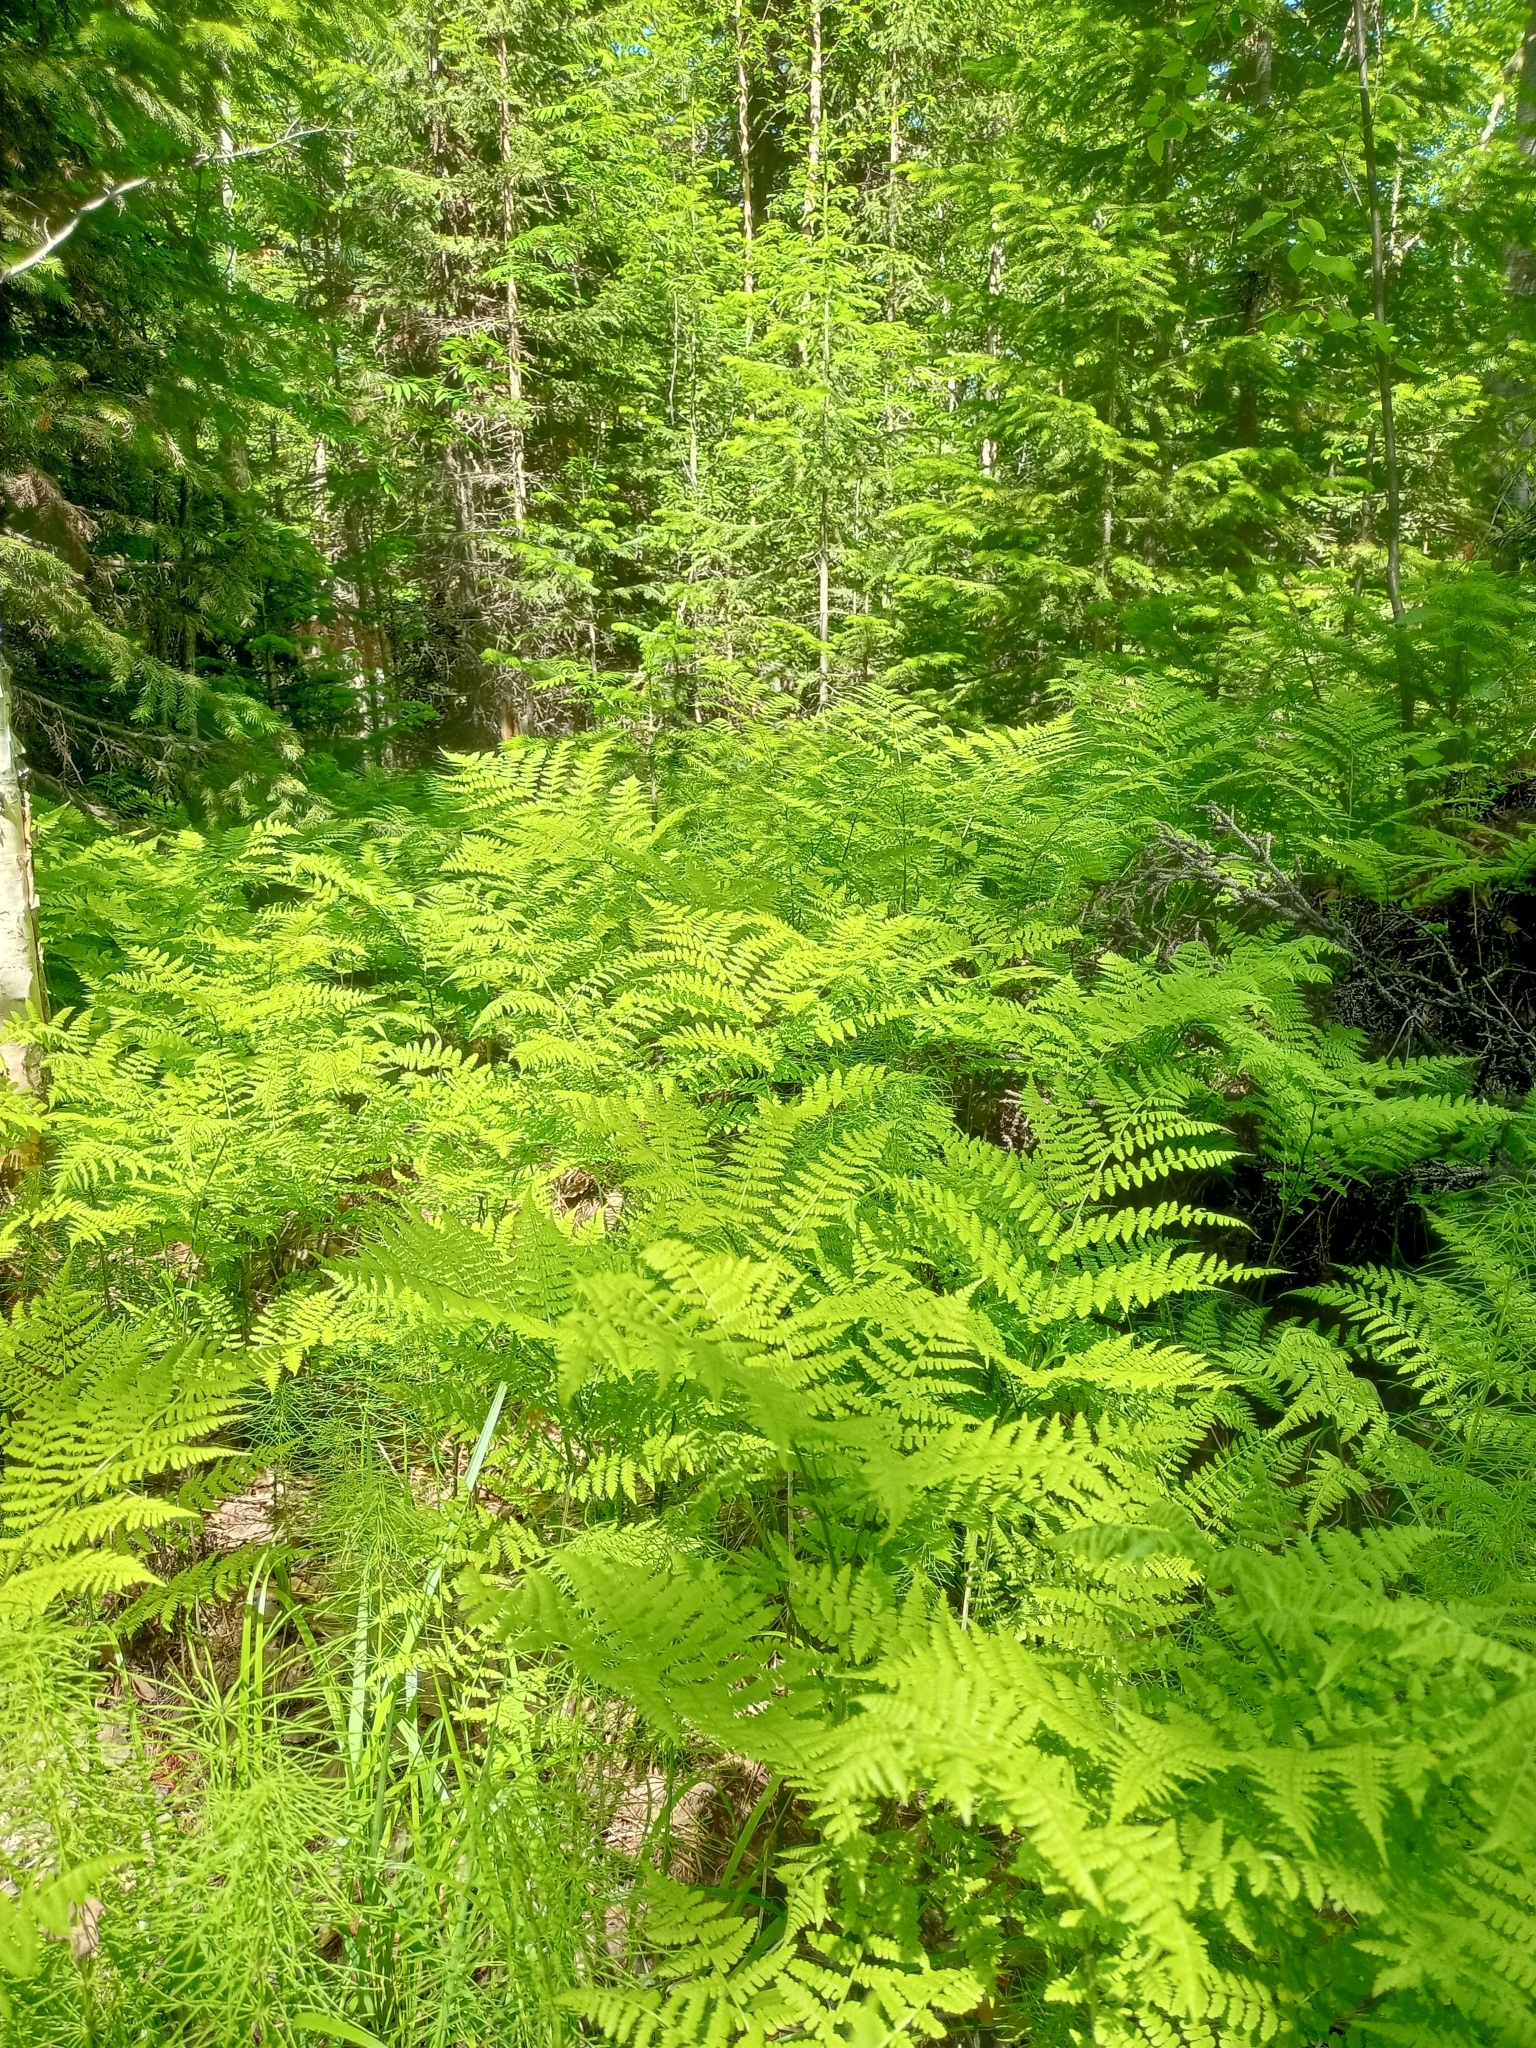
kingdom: Plantae
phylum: Tracheophyta
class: Polypodiopsida
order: Polypodiales
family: Athyriaceae
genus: Diplazium
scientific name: Diplazium sibiricum
